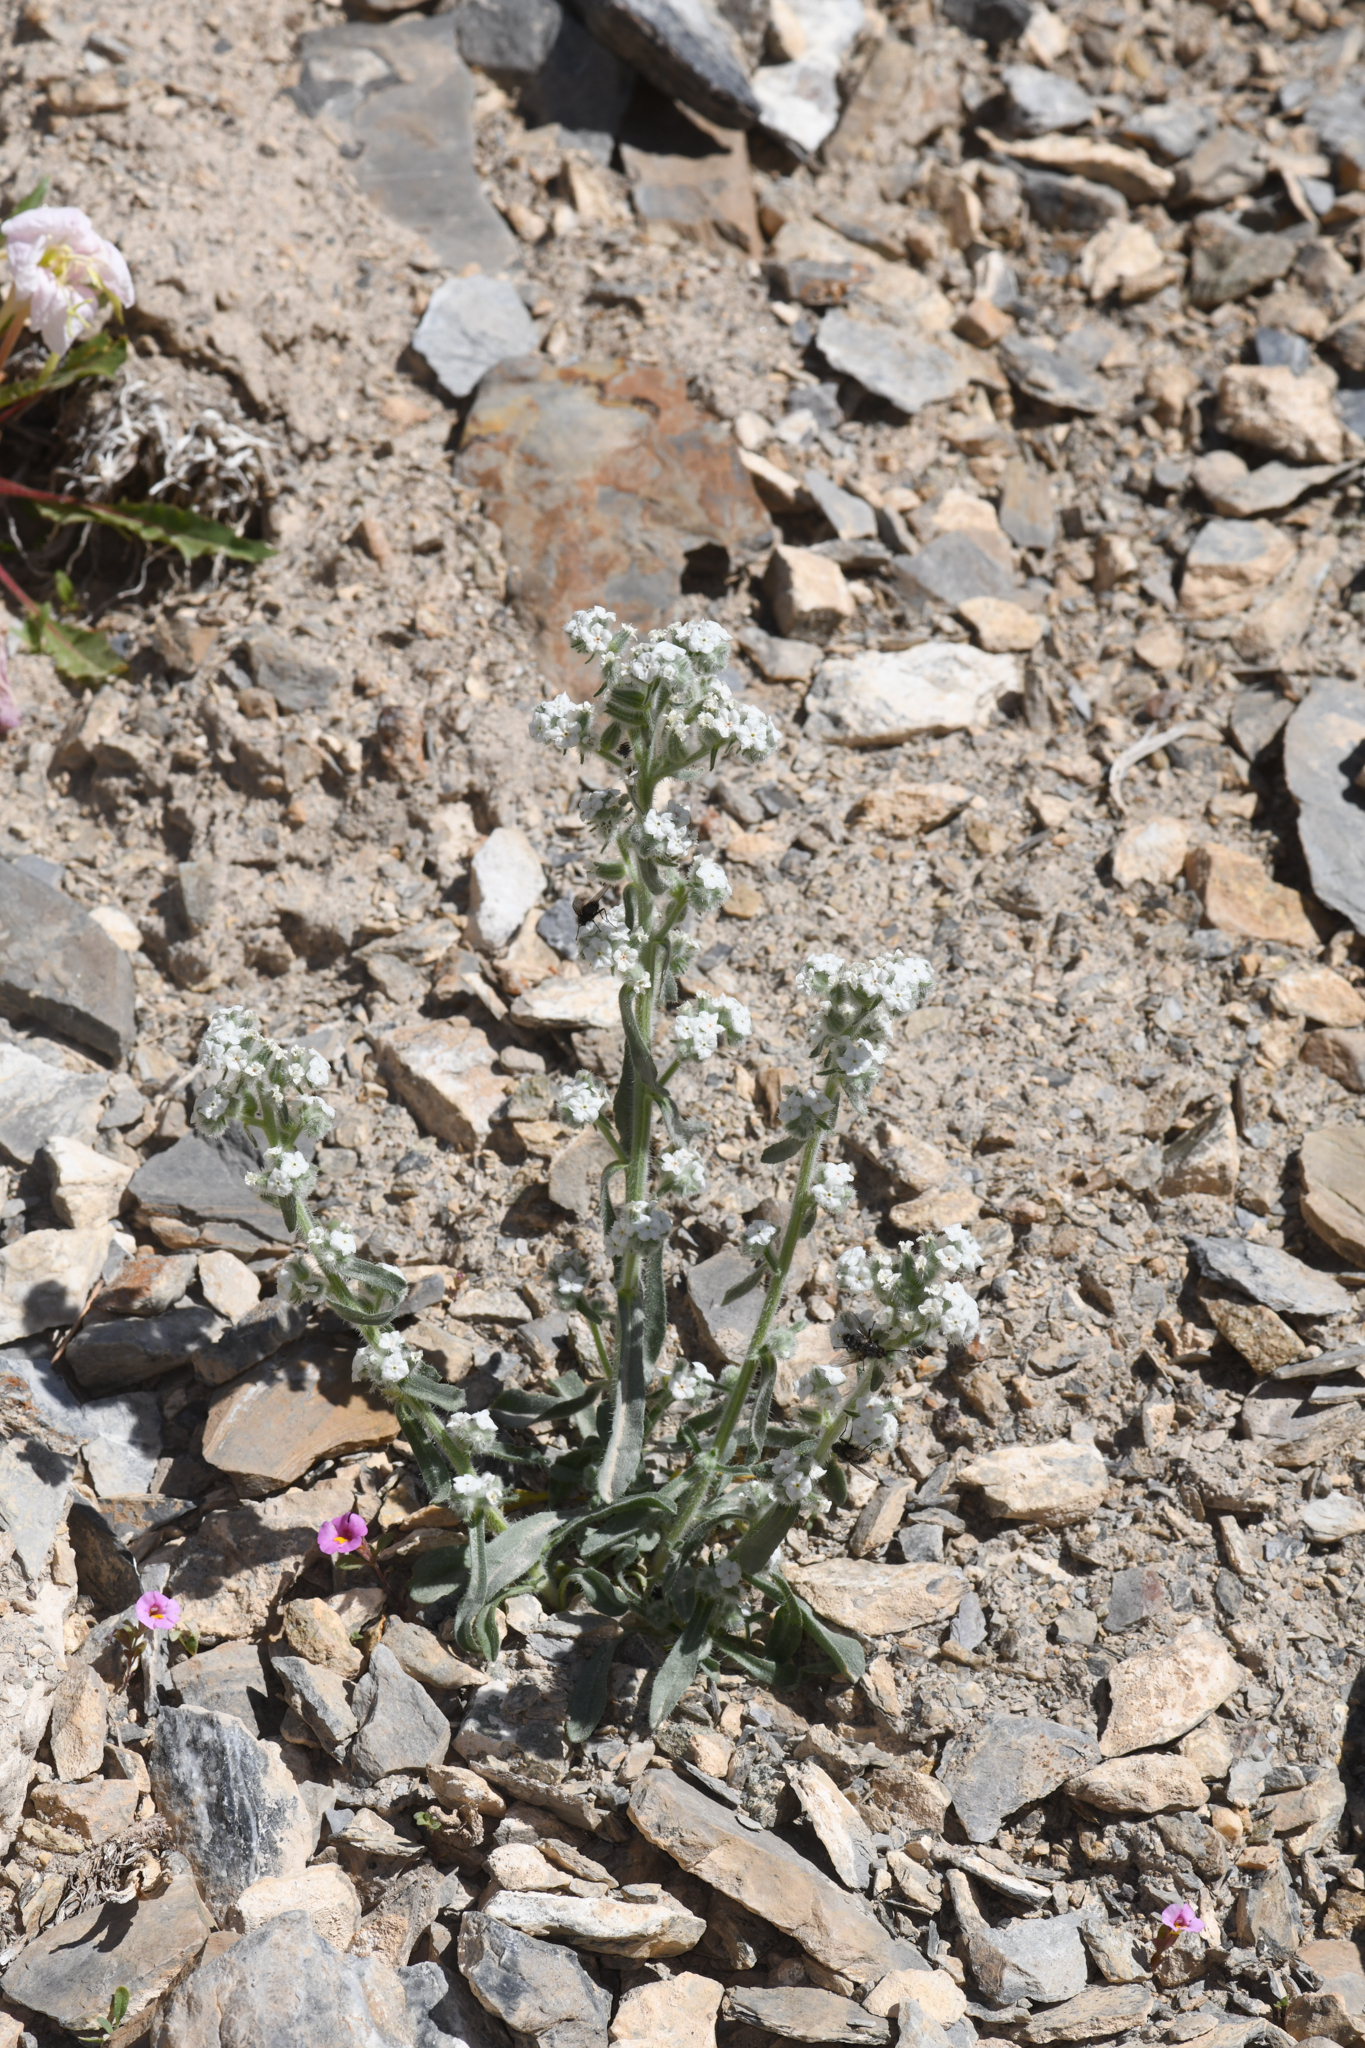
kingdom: Plantae
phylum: Tracheophyta
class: Magnoliopsida
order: Boraginales
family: Boraginaceae
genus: Oreocarya
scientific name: Oreocarya hoffmannii
